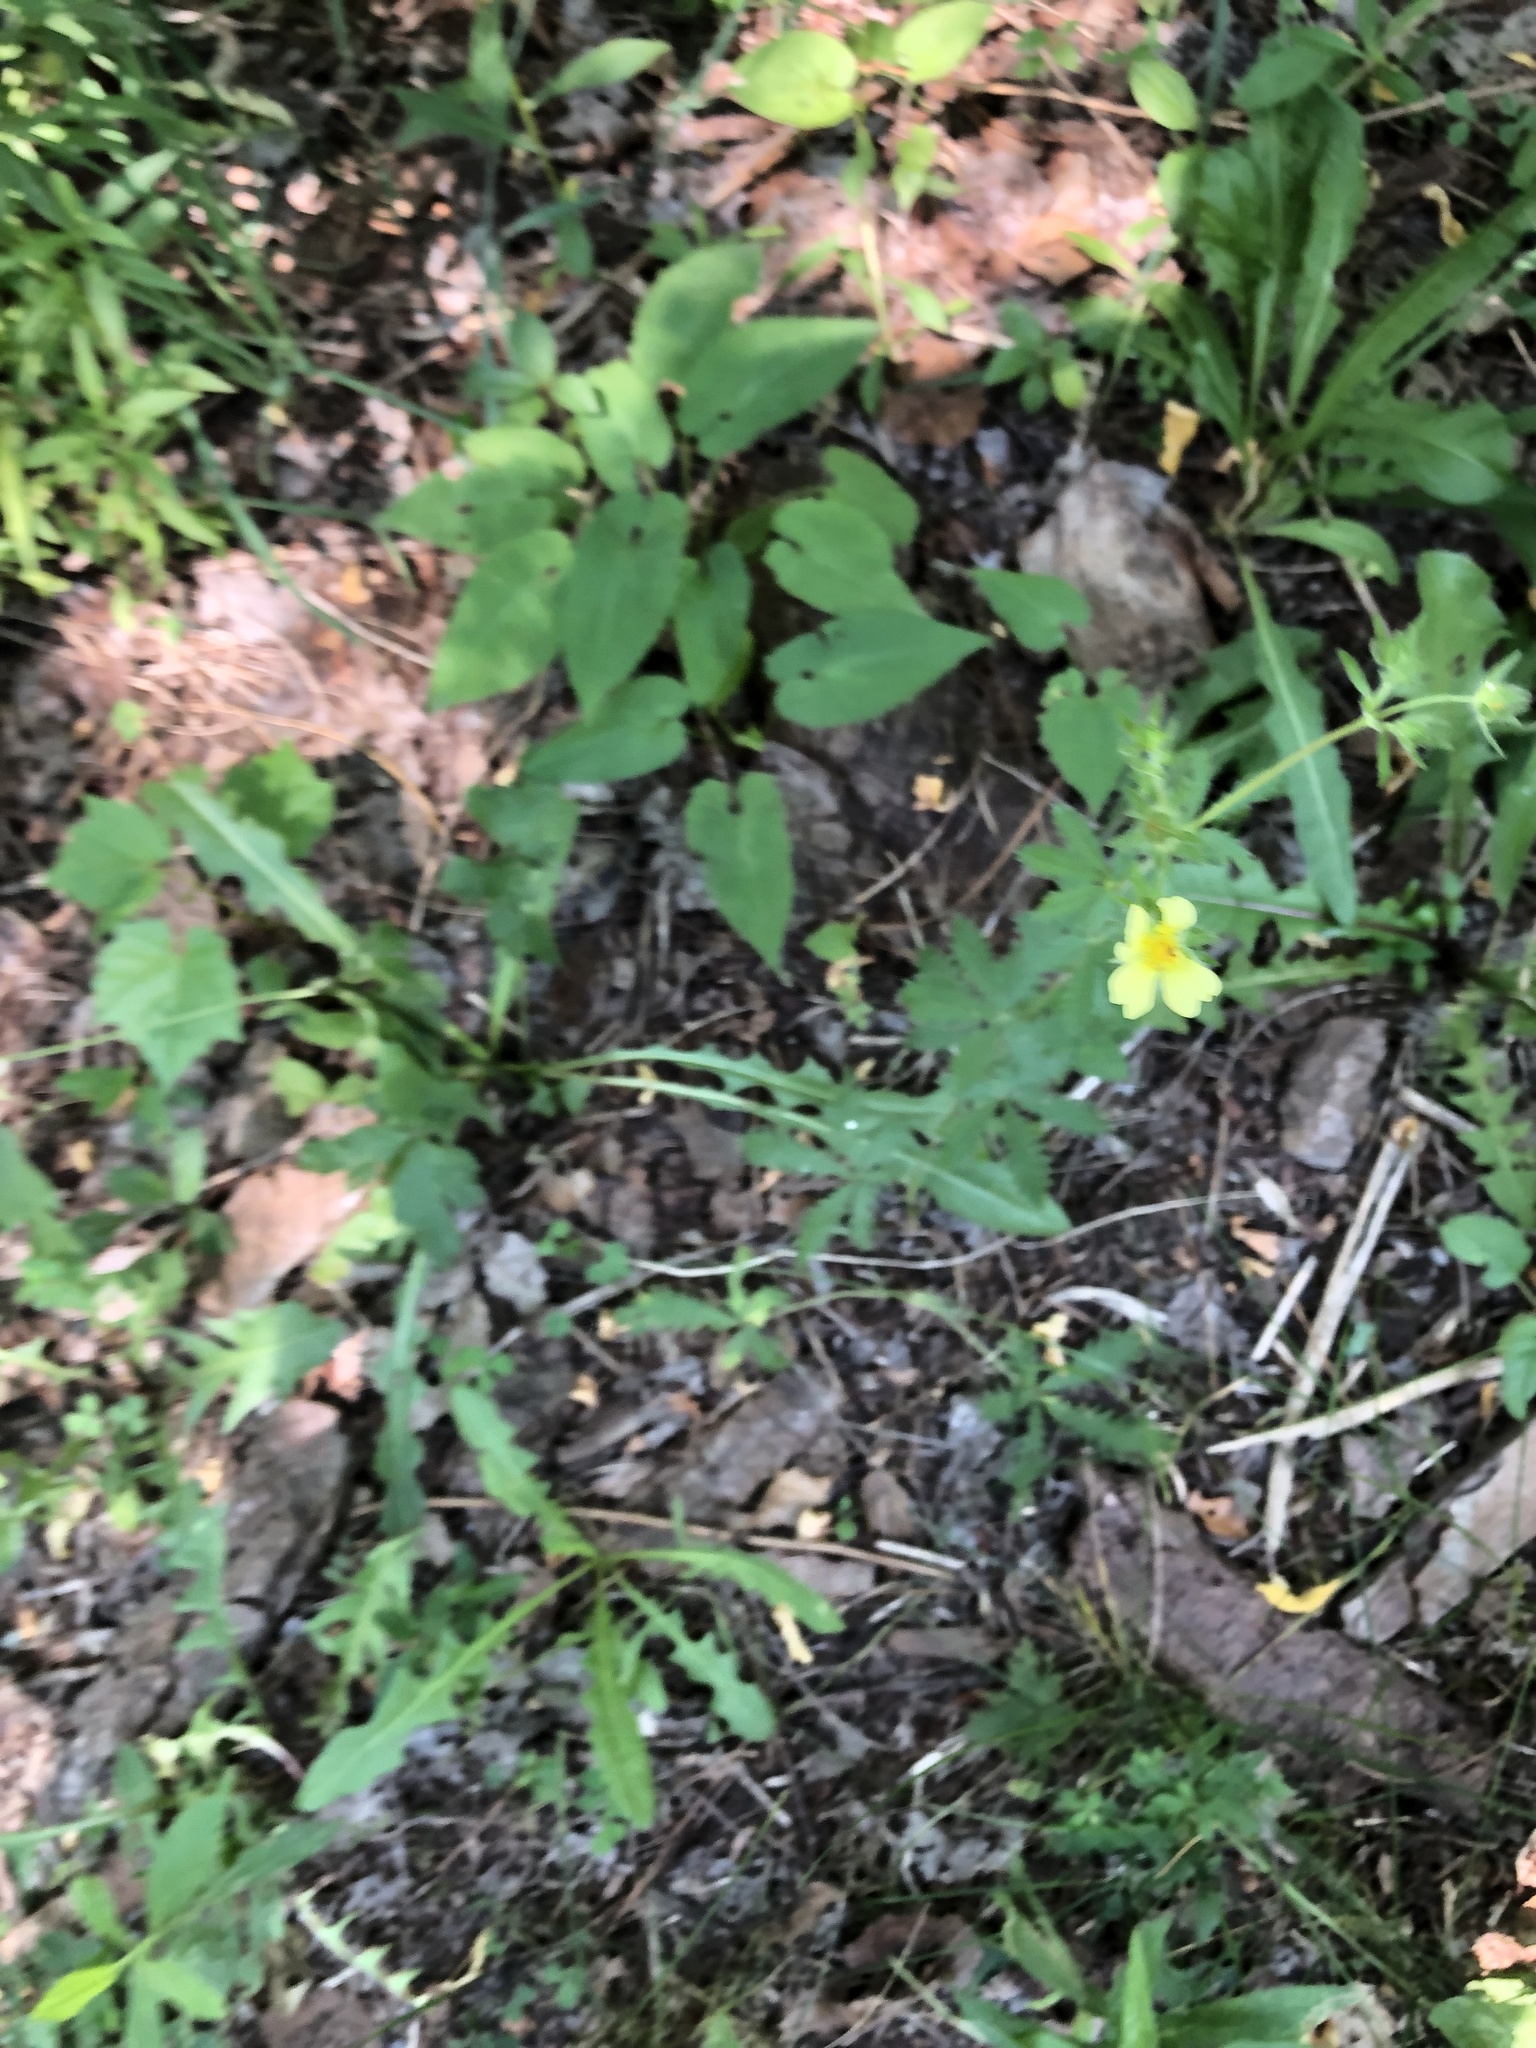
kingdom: Plantae
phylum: Tracheophyta
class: Magnoliopsida
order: Rosales
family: Rosaceae
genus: Potentilla
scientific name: Potentilla recta
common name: Sulphur cinquefoil
